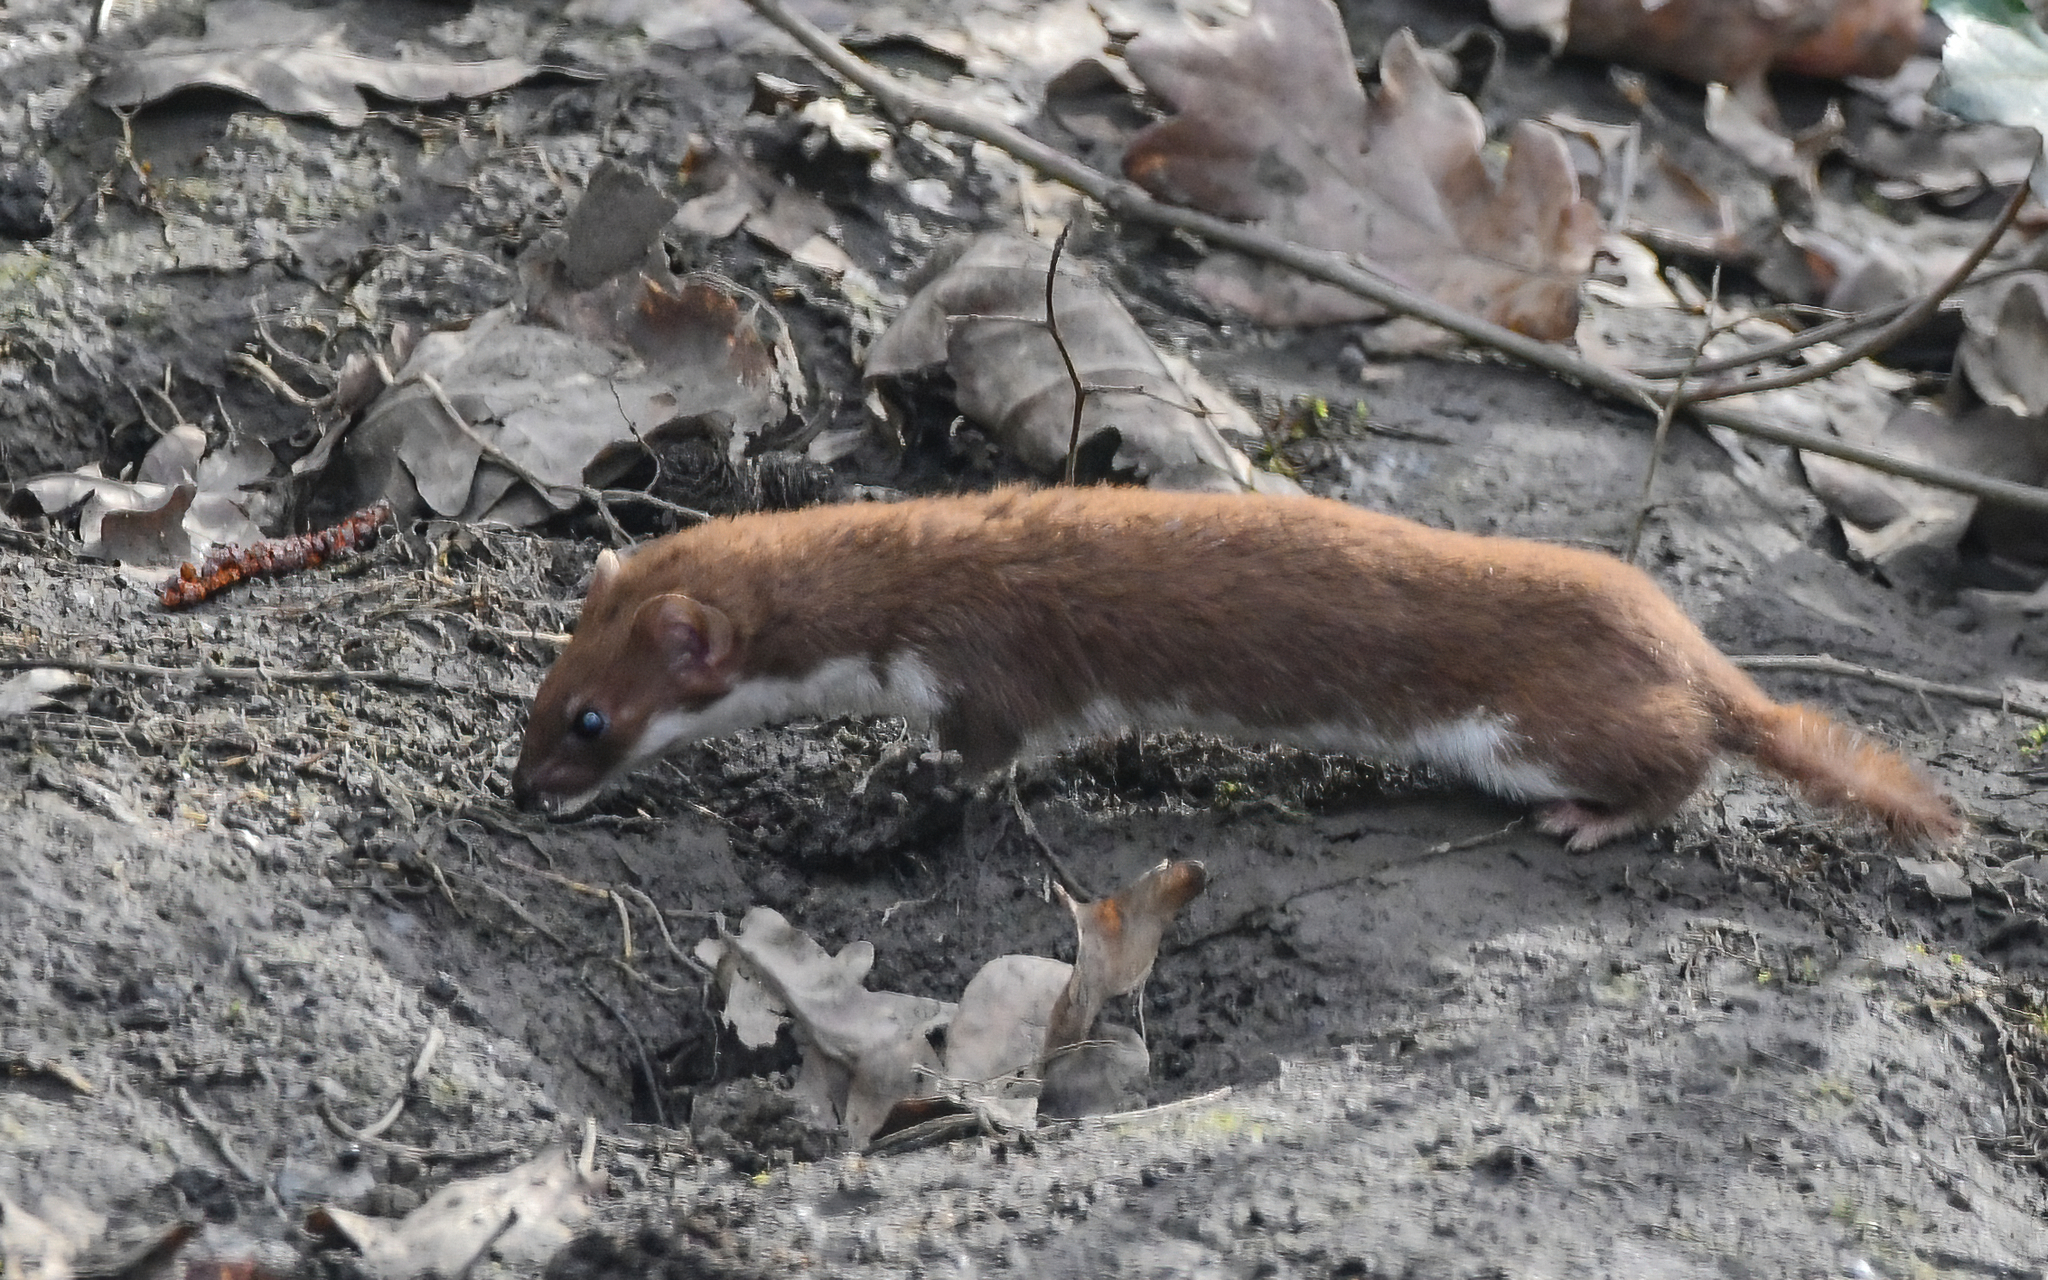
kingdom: Animalia
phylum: Chordata
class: Mammalia
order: Carnivora
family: Mustelidae
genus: Mustela
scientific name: Mustela nivalis
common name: Least weasel
